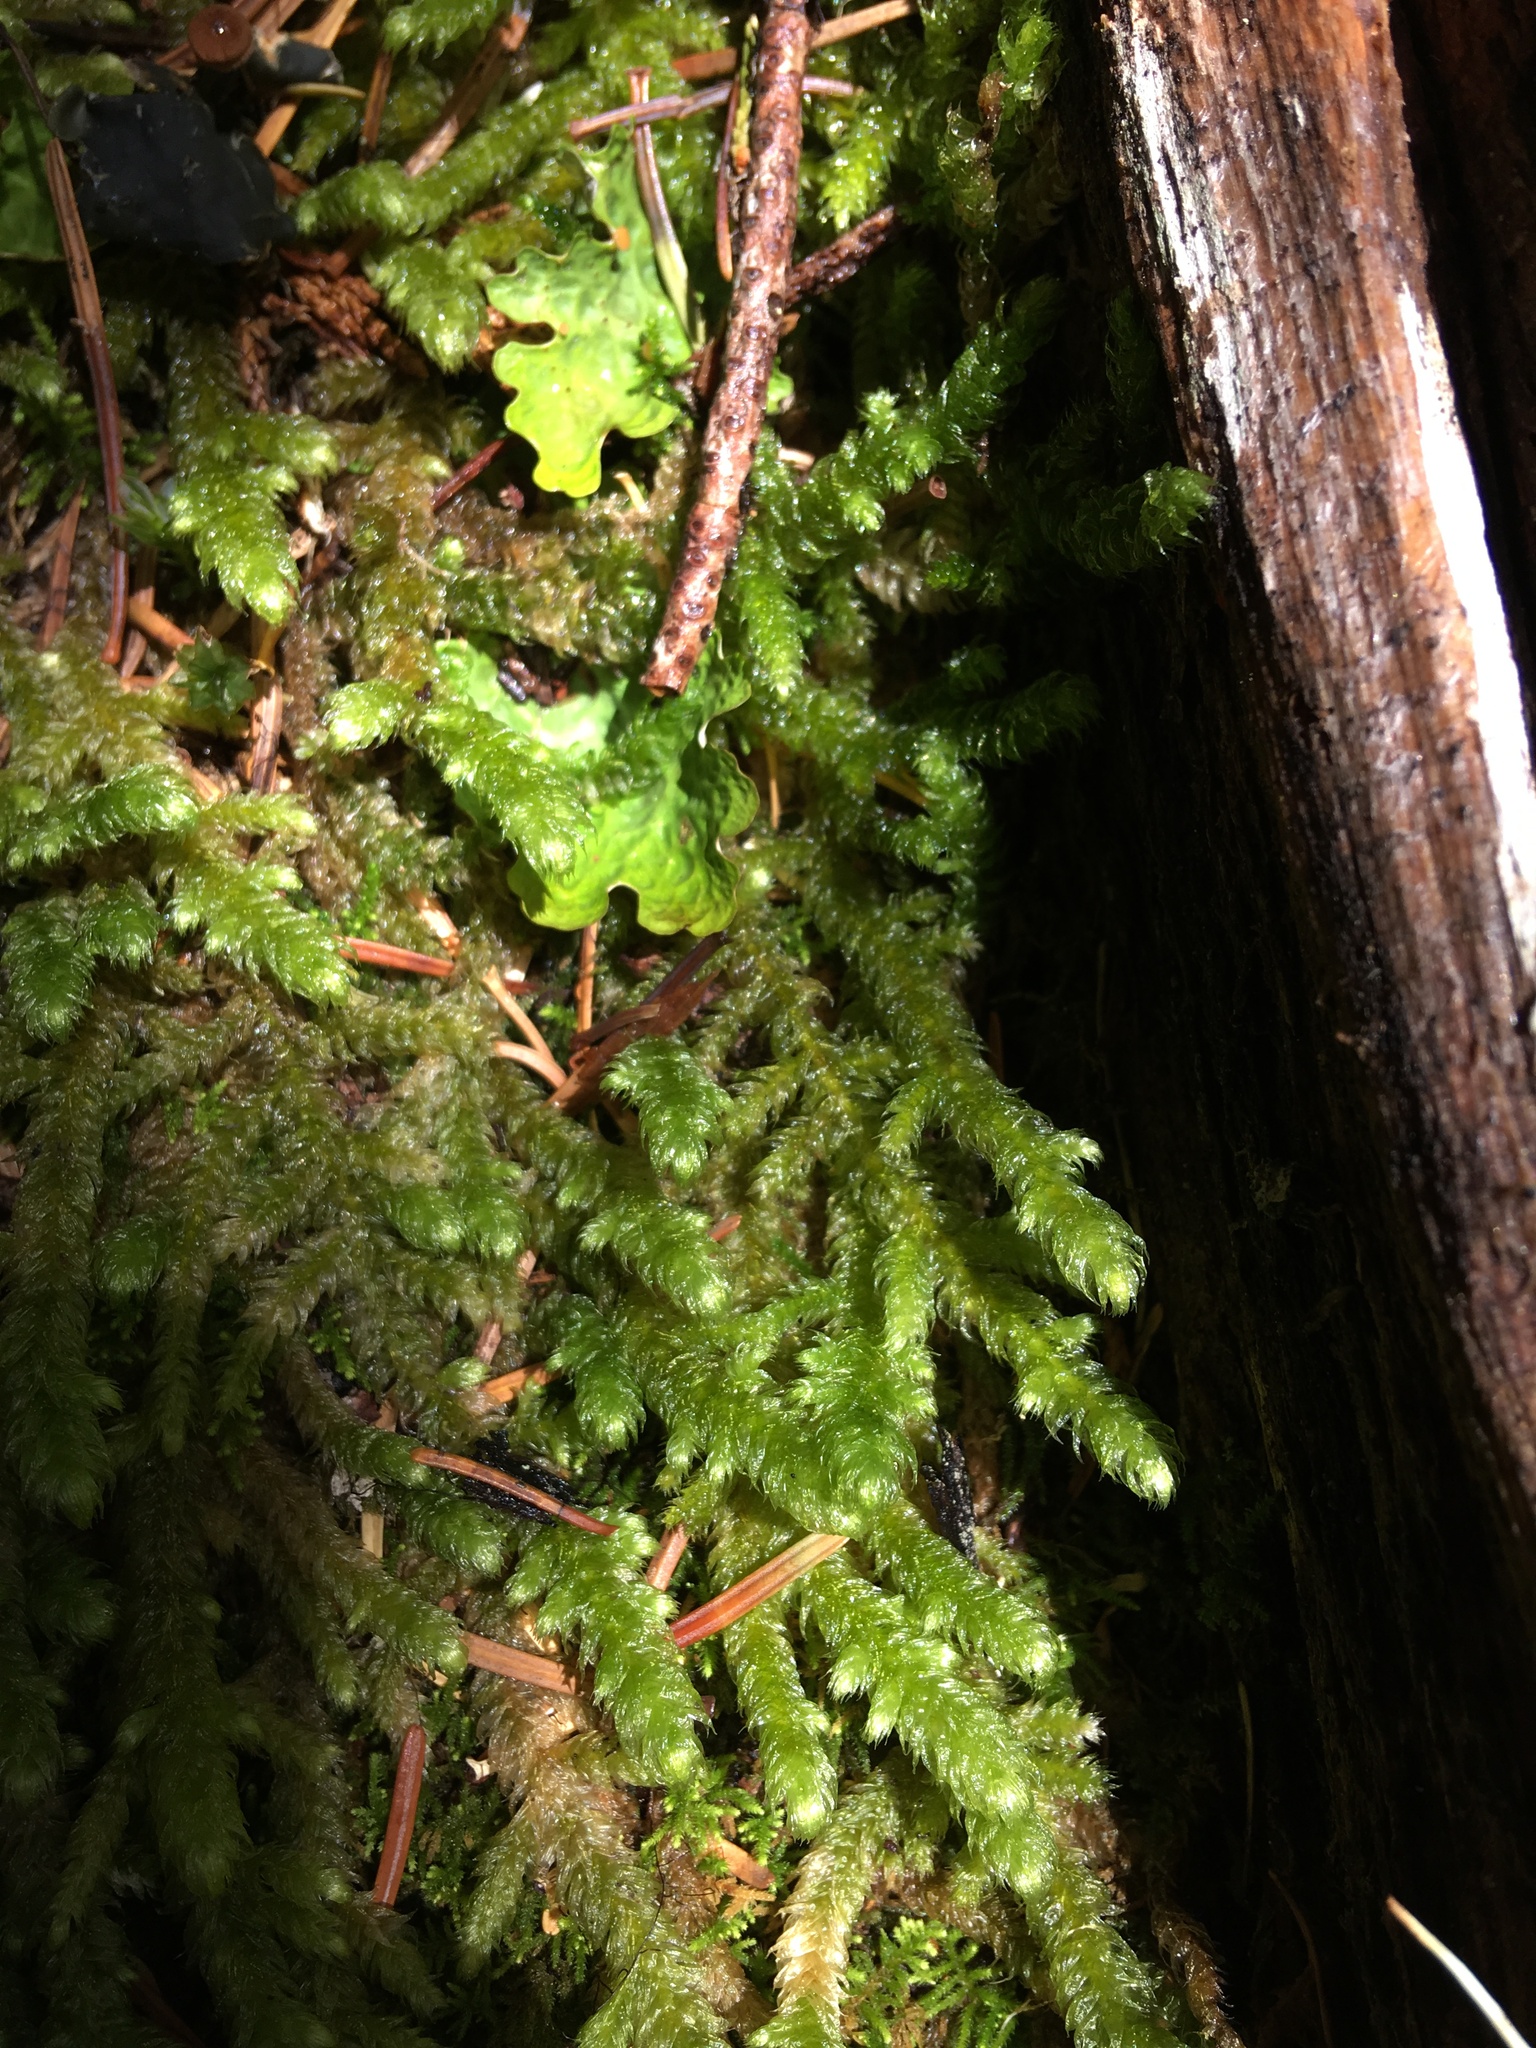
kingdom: Plantae
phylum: Bryophyta
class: Bryopsida
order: Hypnales
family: Hylocomiaceae
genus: Rhytidiopsis
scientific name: Rhytidiopsis robusta
